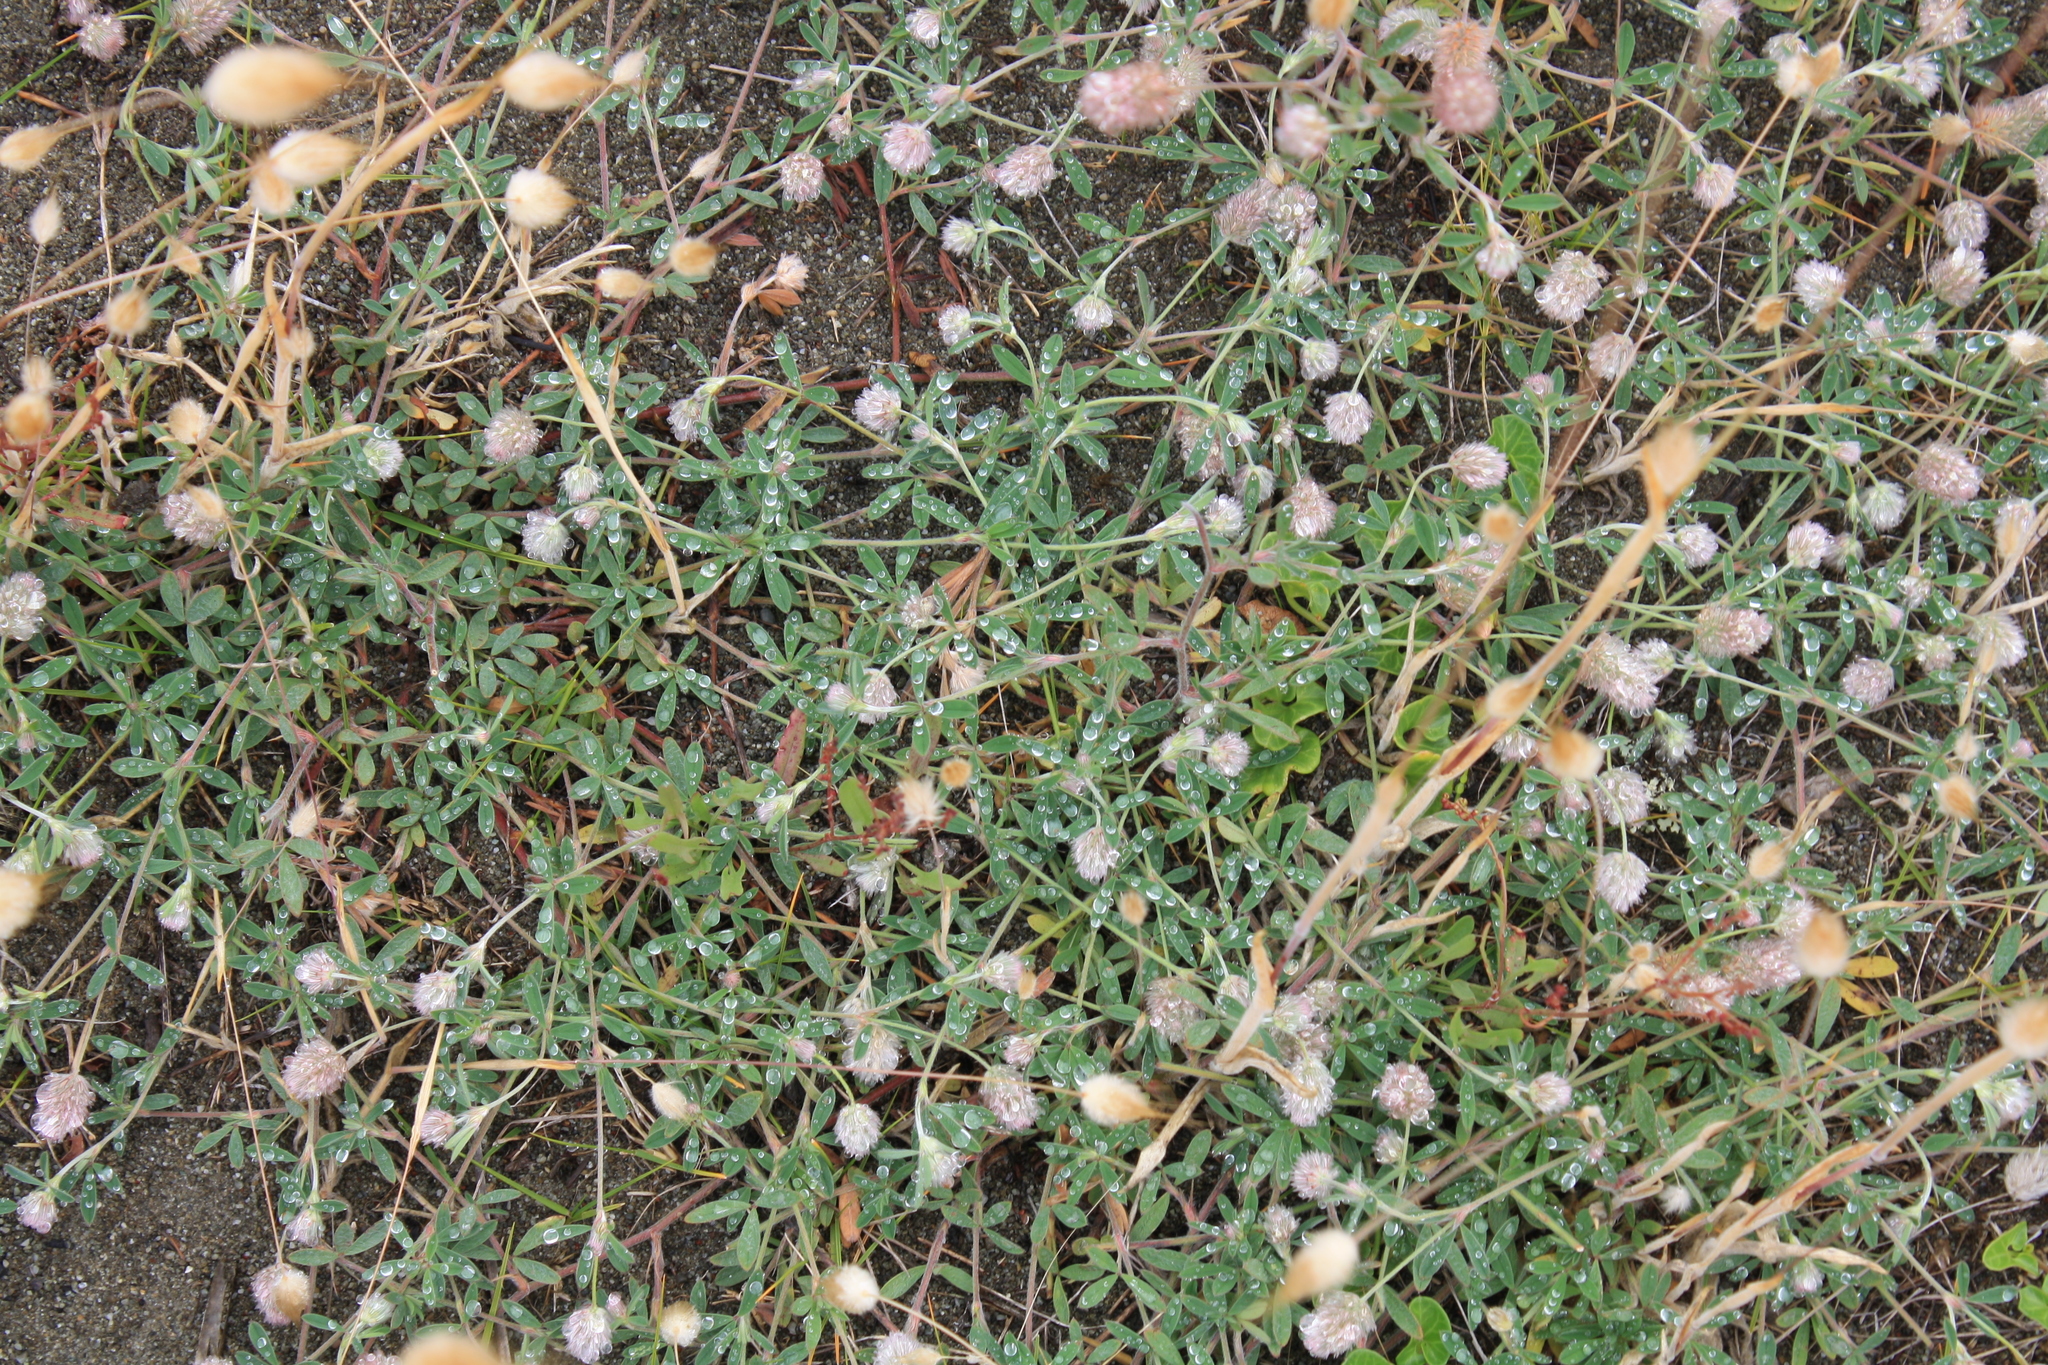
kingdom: Plantae
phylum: Tracheophyta
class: Magnoliopsida
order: Fabales
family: Fabaceae
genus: Trifolium
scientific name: Trifolium arvense
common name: Hare's-foot clover
